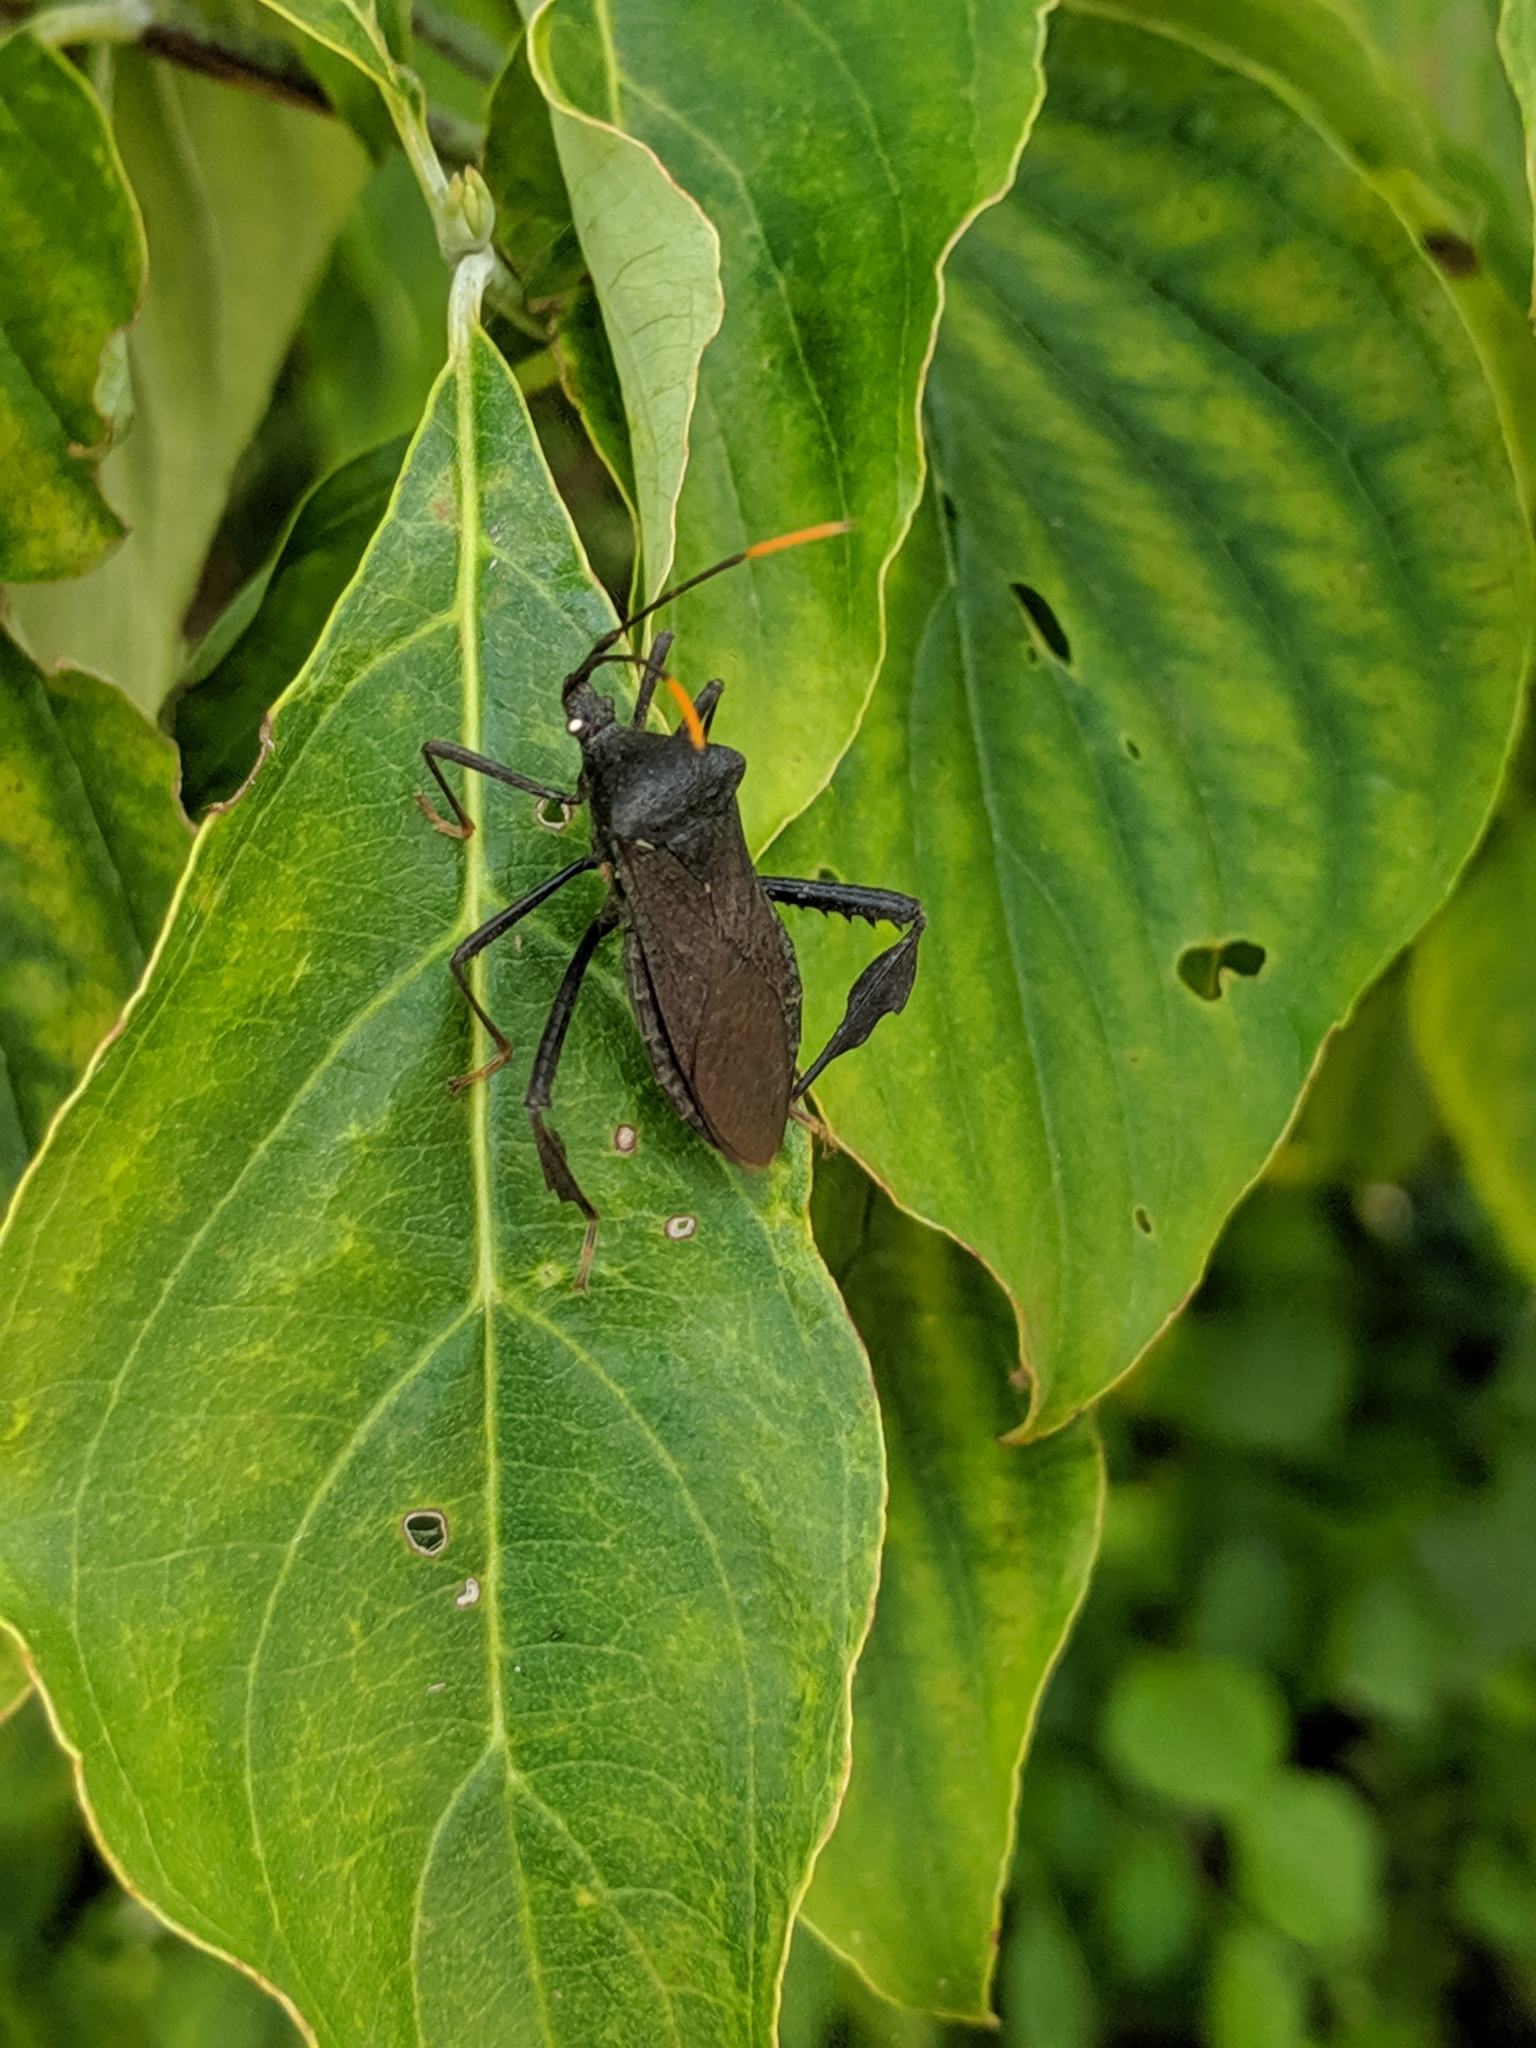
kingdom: Animalia
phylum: Arthropoda
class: Insecta
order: Hemiptera
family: Coreidae
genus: Acanthocephala
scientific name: Acanthocephala terminalis
